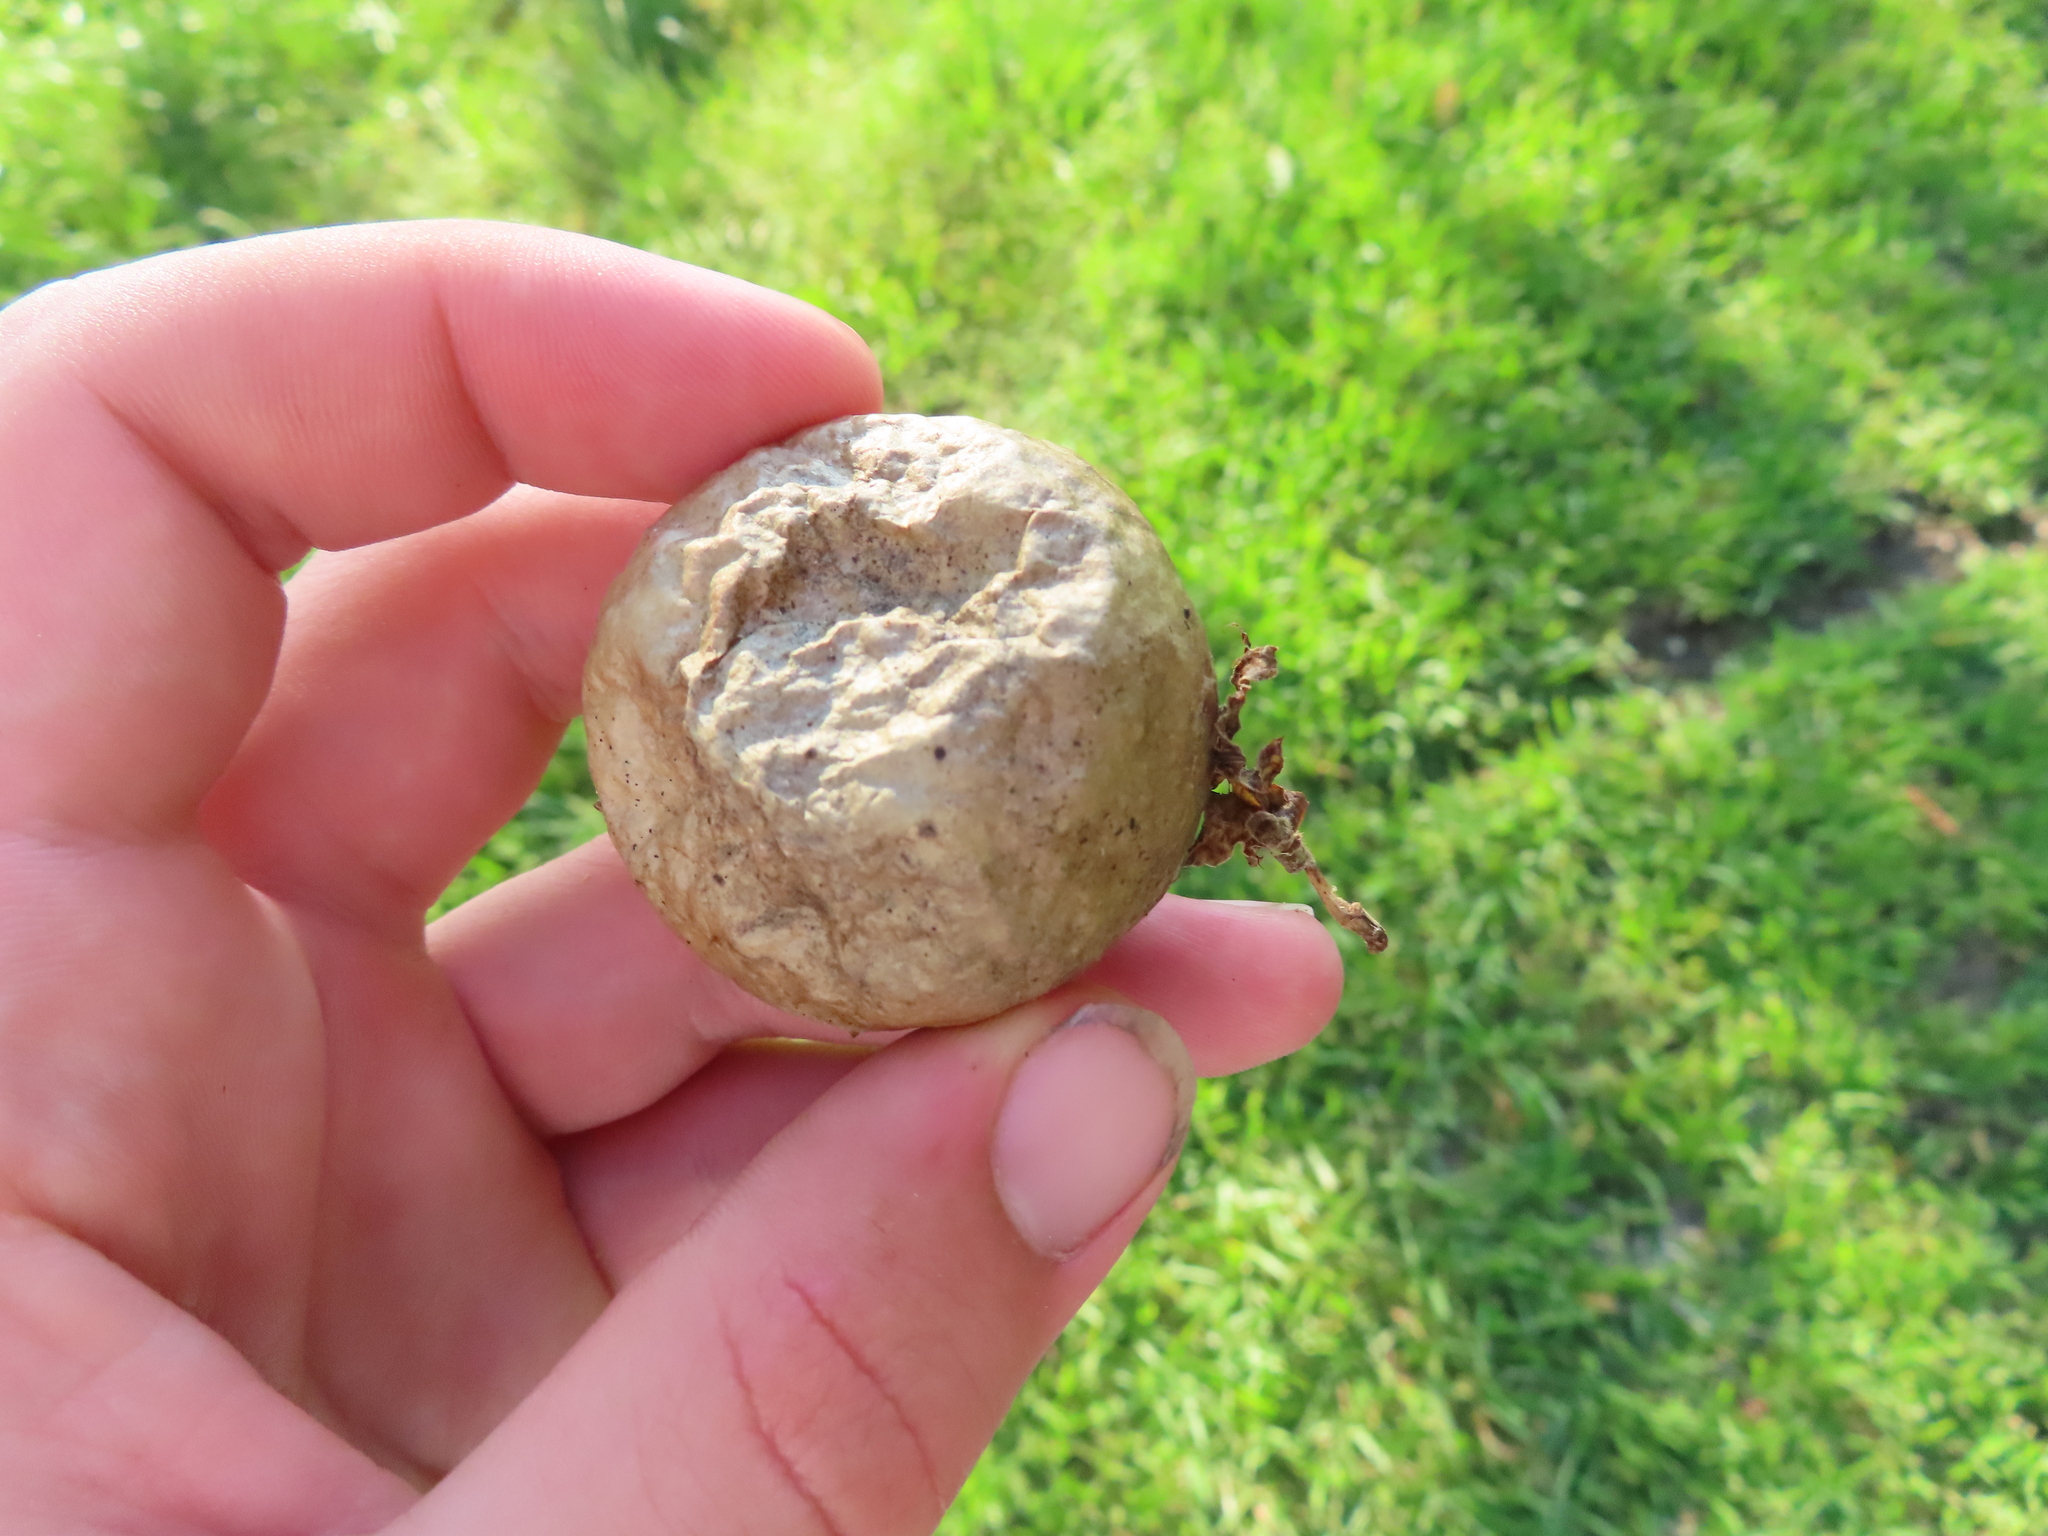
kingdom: Animalia
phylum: Arthropoda
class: Insecta
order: Hymenoptera
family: Cynipidae
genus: Amphibolips
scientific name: Amphibolips
